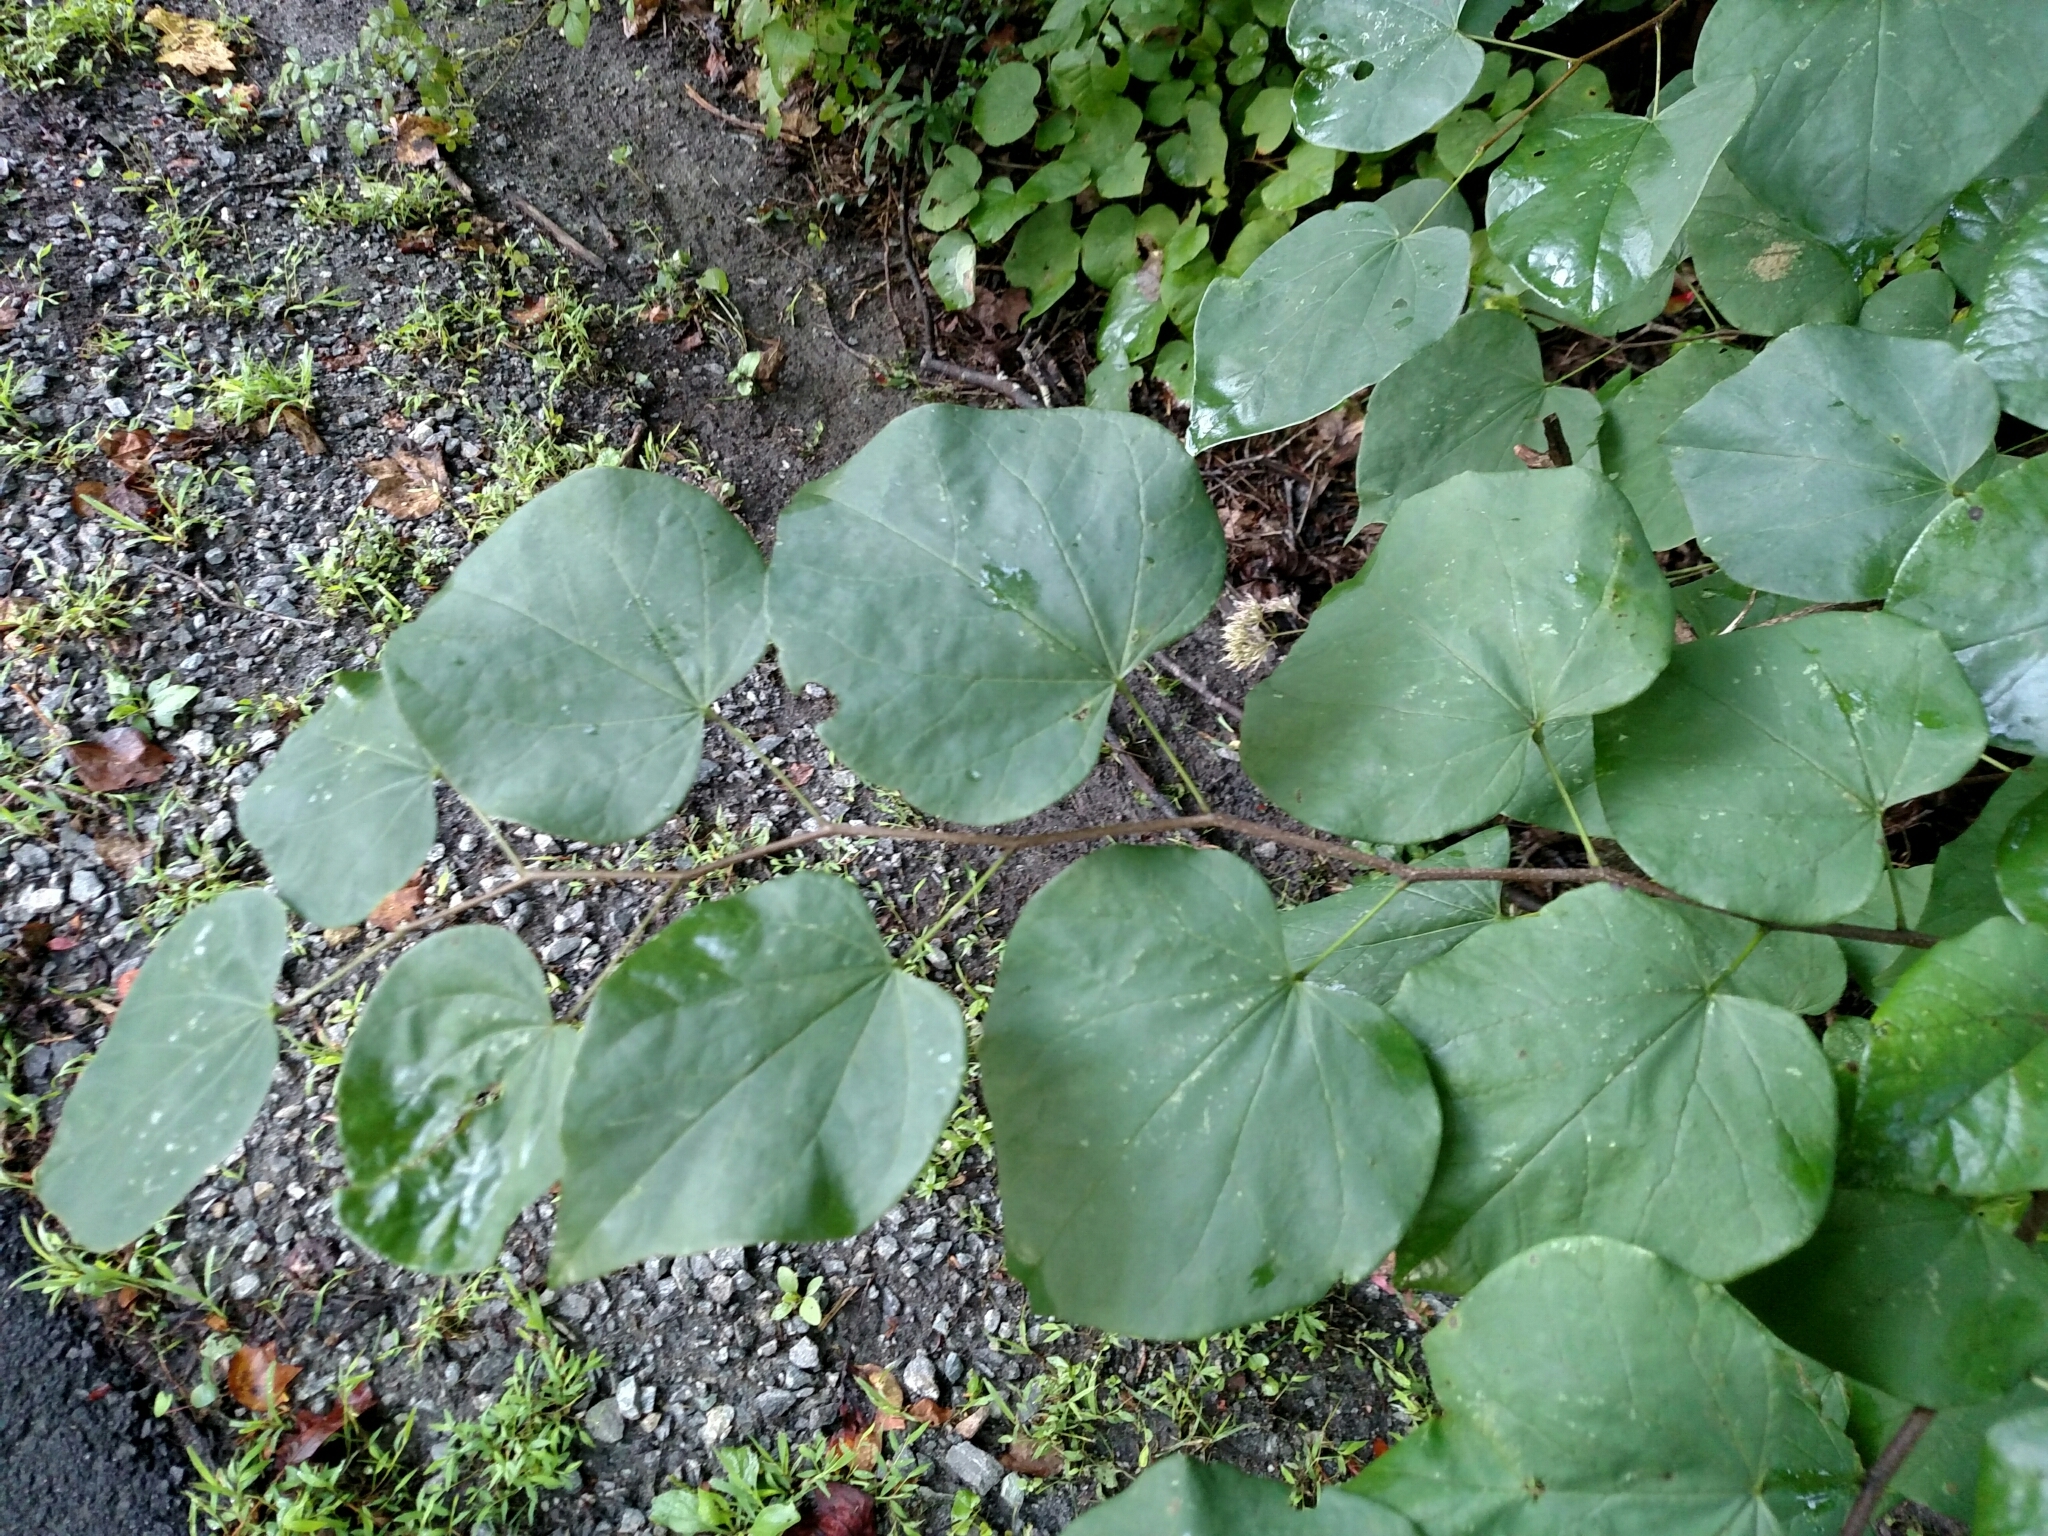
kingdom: Plantae
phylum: Tracheophyta
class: Magnoliopsida
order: Fabales
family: Fabaceae
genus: Cercis
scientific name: Cercis canadensis
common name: Eastern redbud
